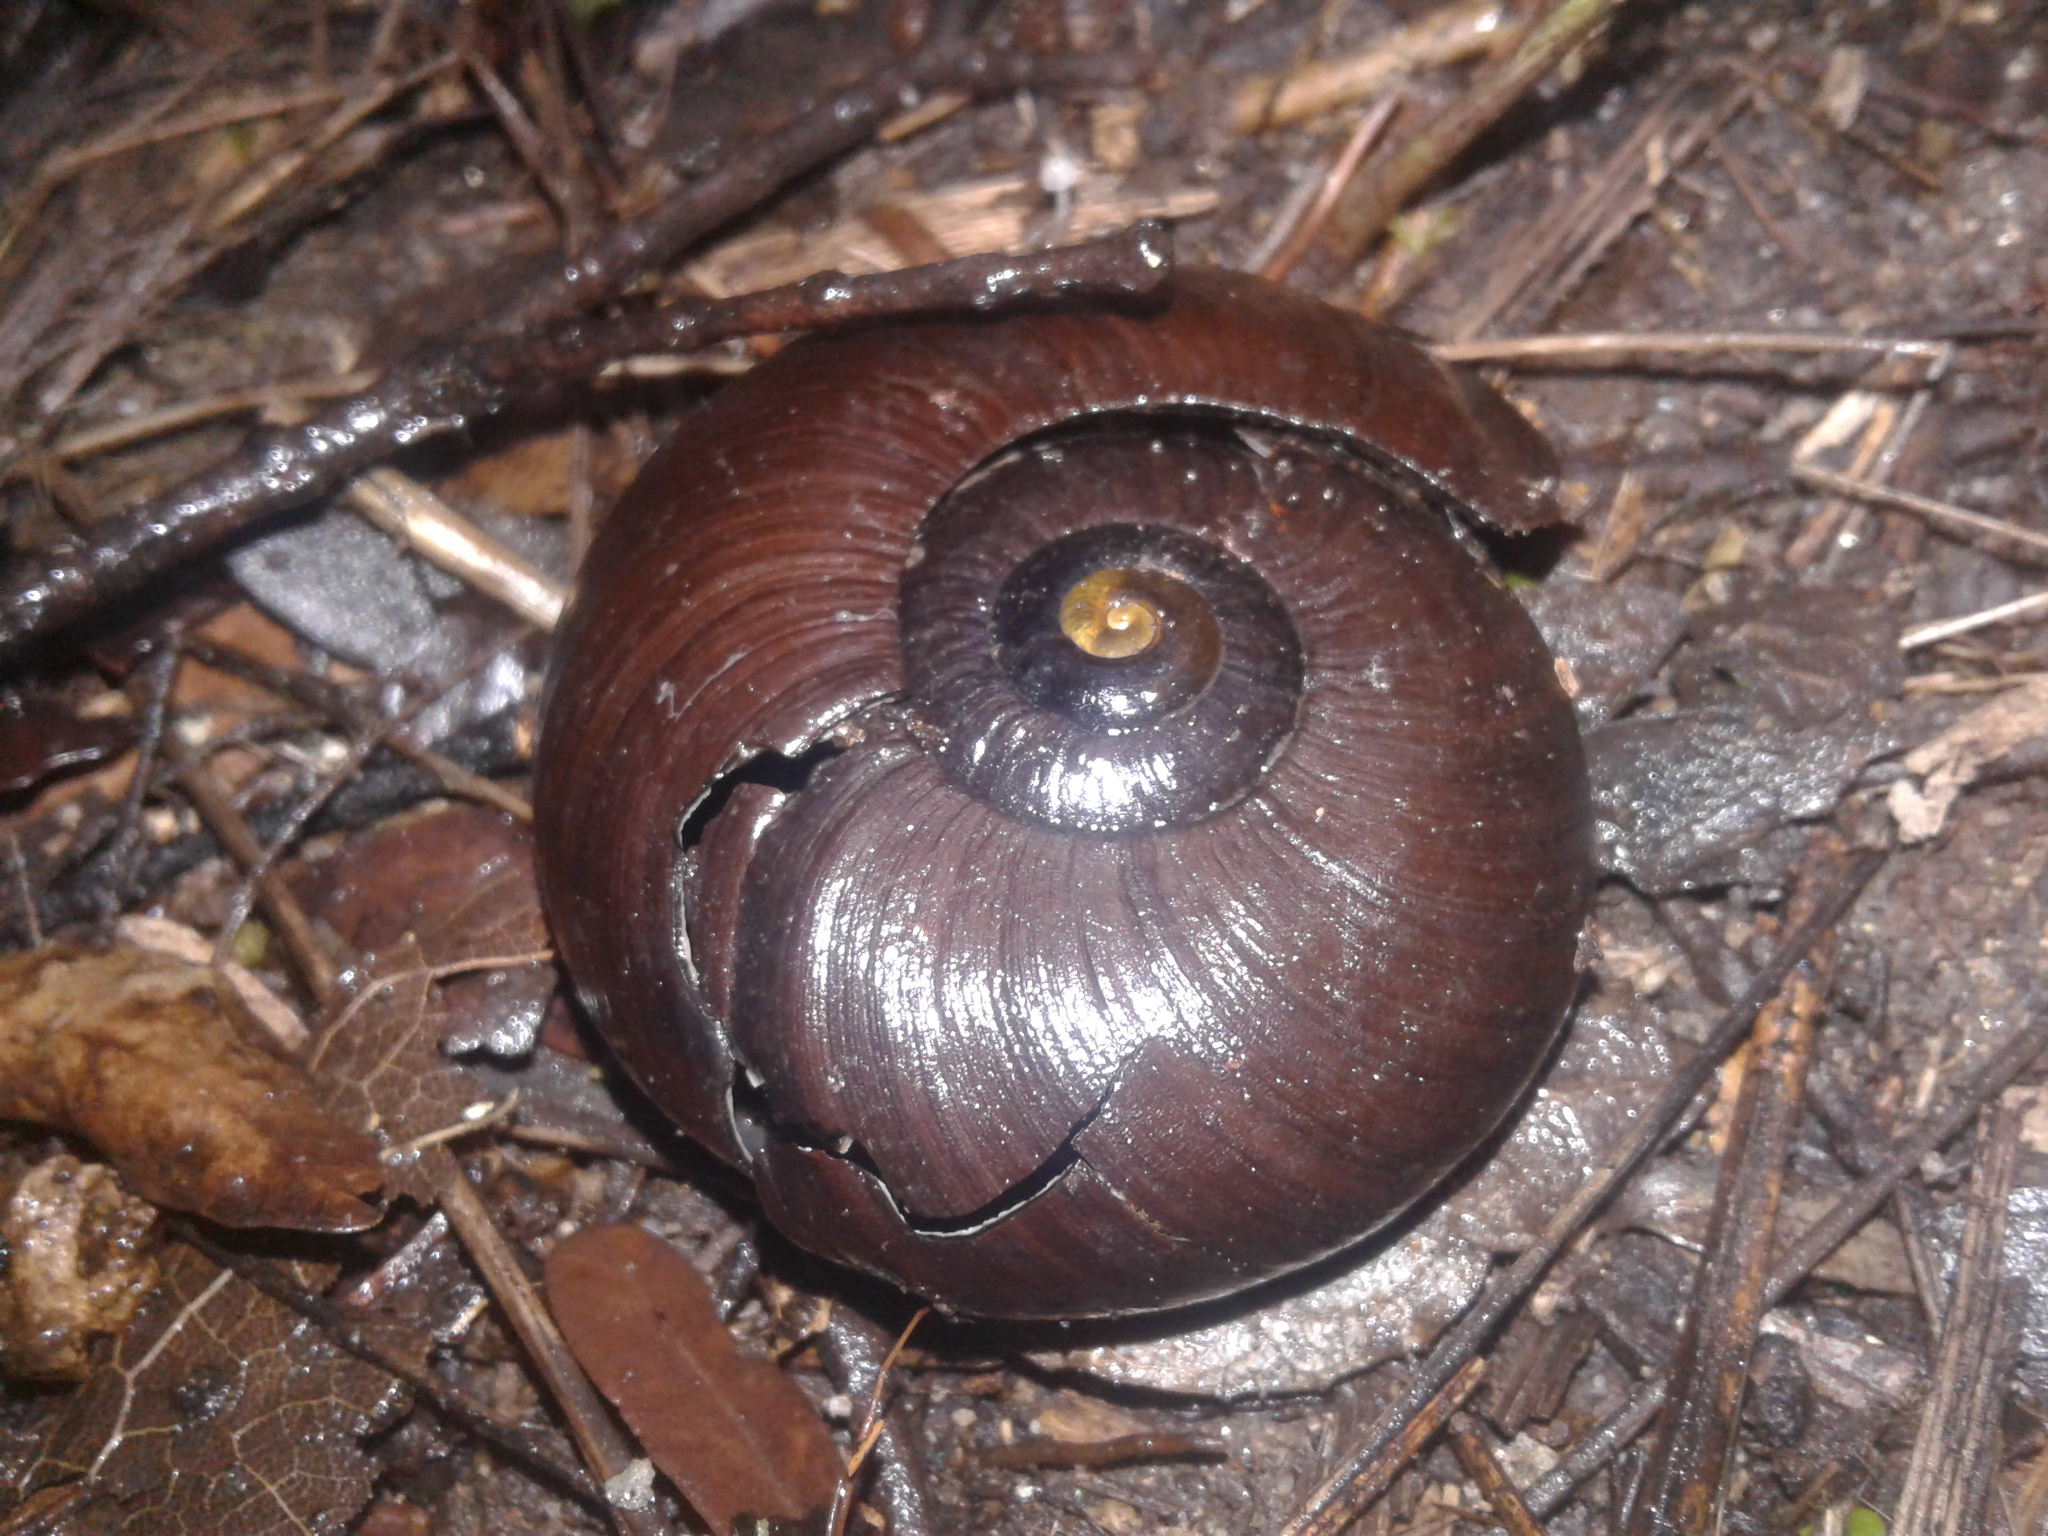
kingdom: Animalia
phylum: Mollusca
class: Gastropoda
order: Stylommatophora
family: Rhytididae
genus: Powelliphanta
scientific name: Powelliphanta superba
